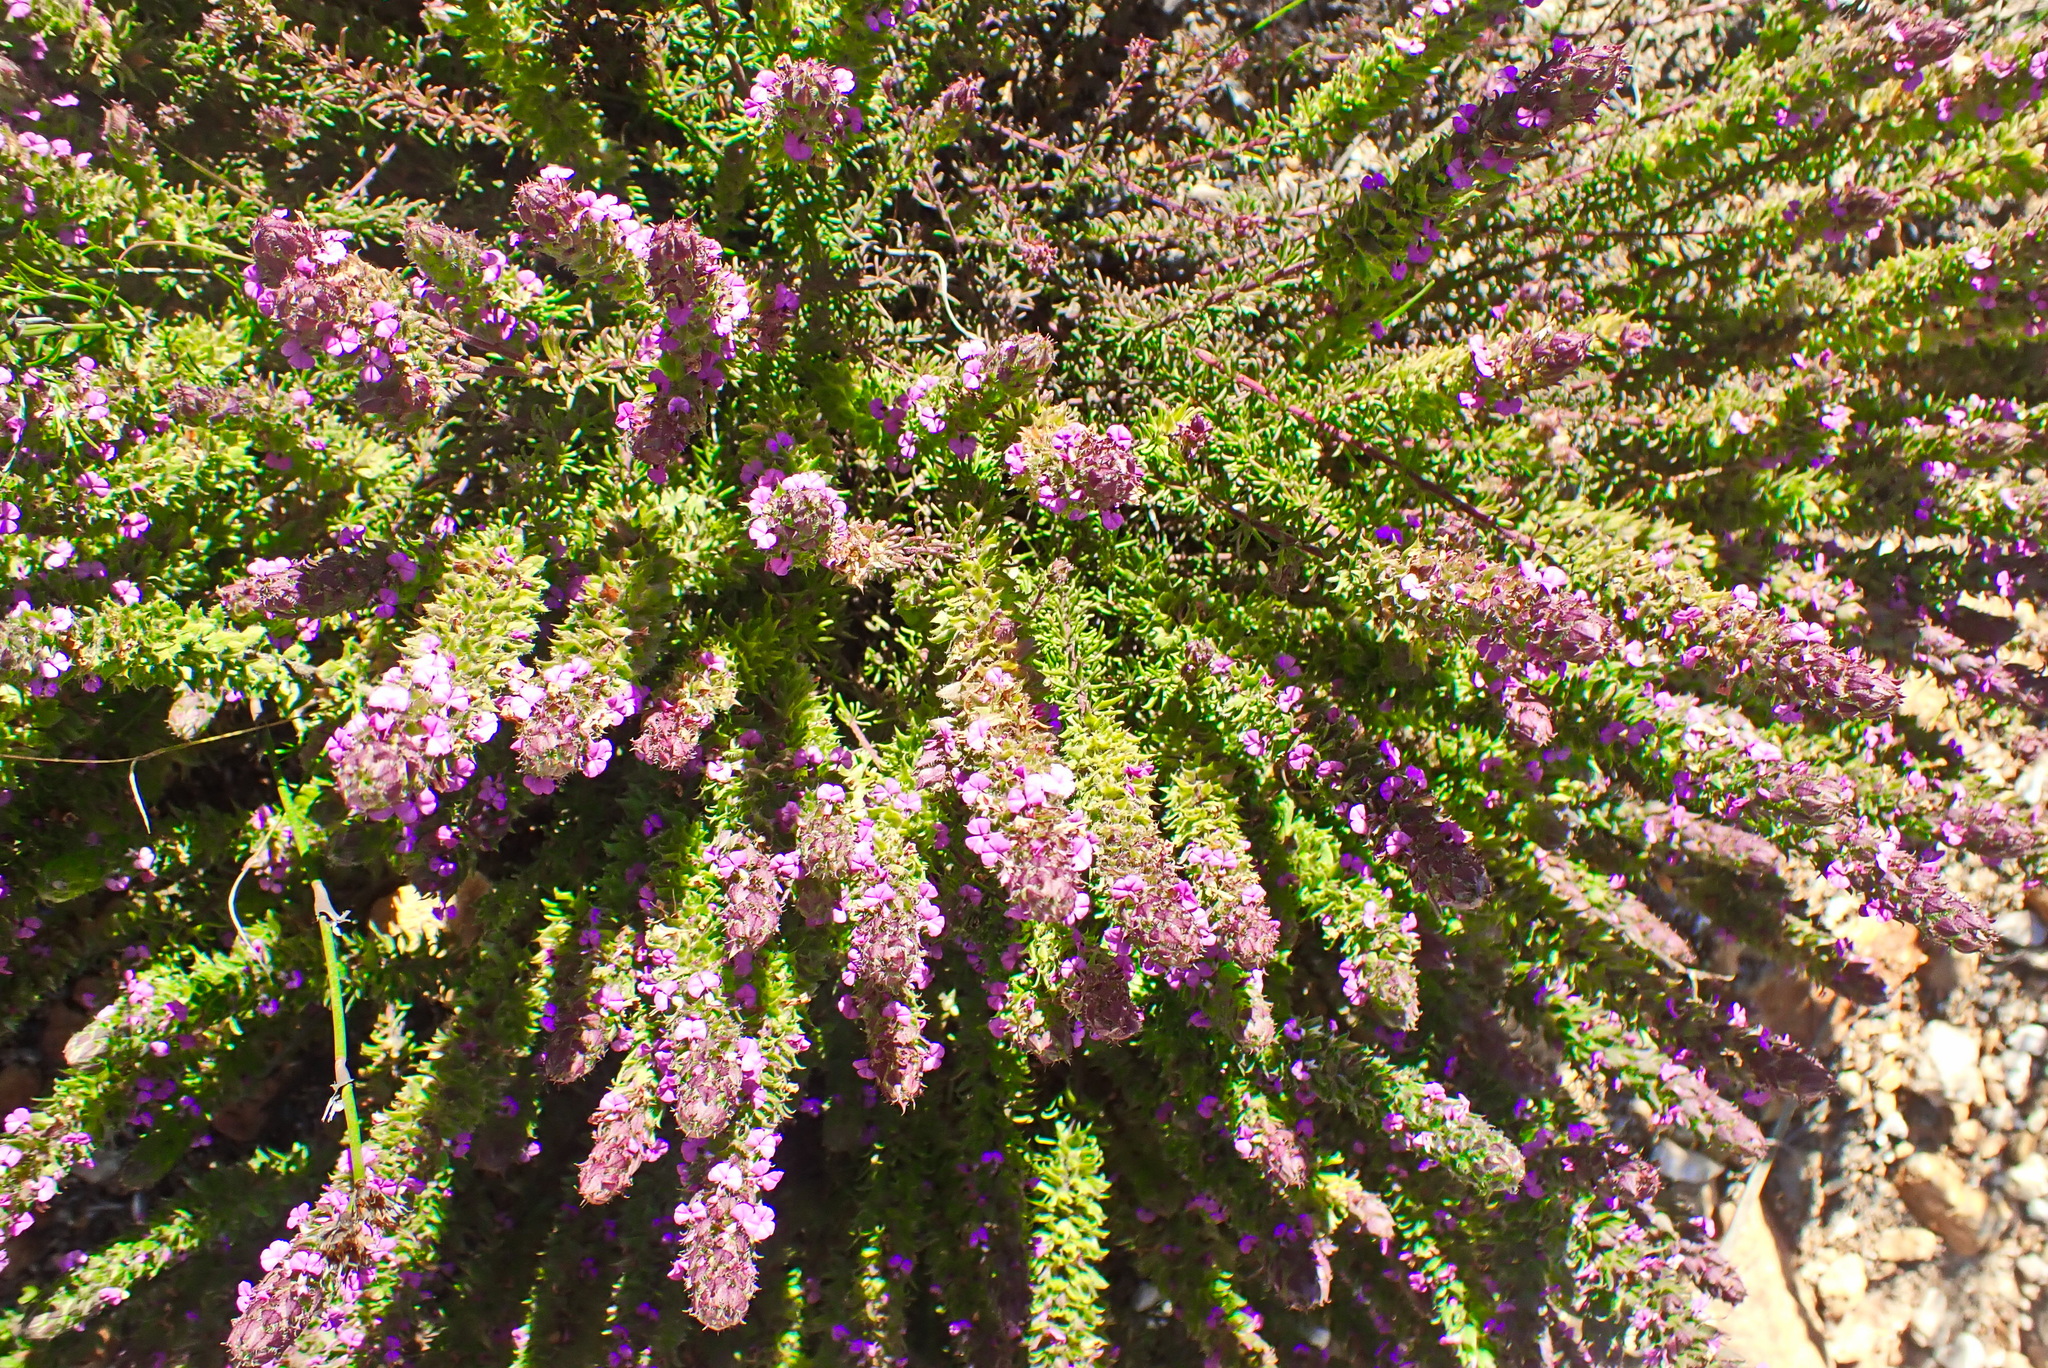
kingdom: Plantae
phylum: Tracheophyta
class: Magnoliopsida
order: Fabales
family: Polygalaceae
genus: Muraltia
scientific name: Muraltia alopecuroides
